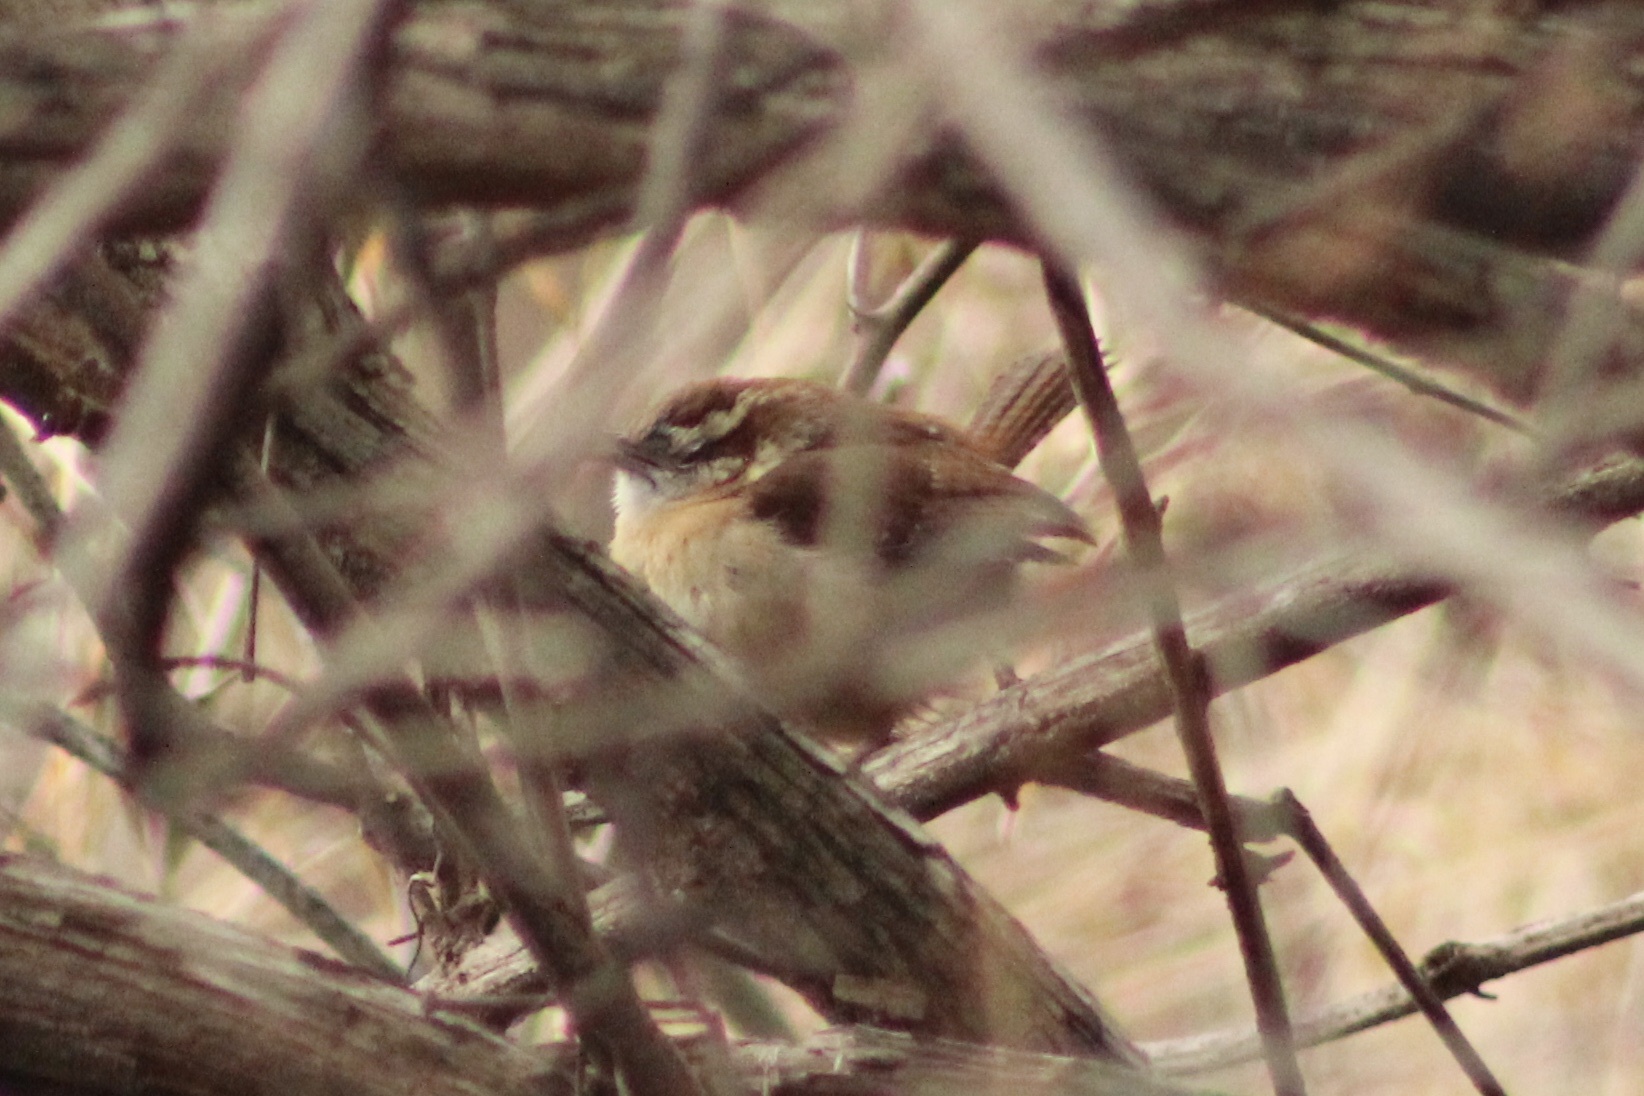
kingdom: Animalia
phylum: Chordata
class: Aves
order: Passeriformes
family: Troglodytidae
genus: Thryothorus
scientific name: Thryothorus ludovicianus
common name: Carolina wren
